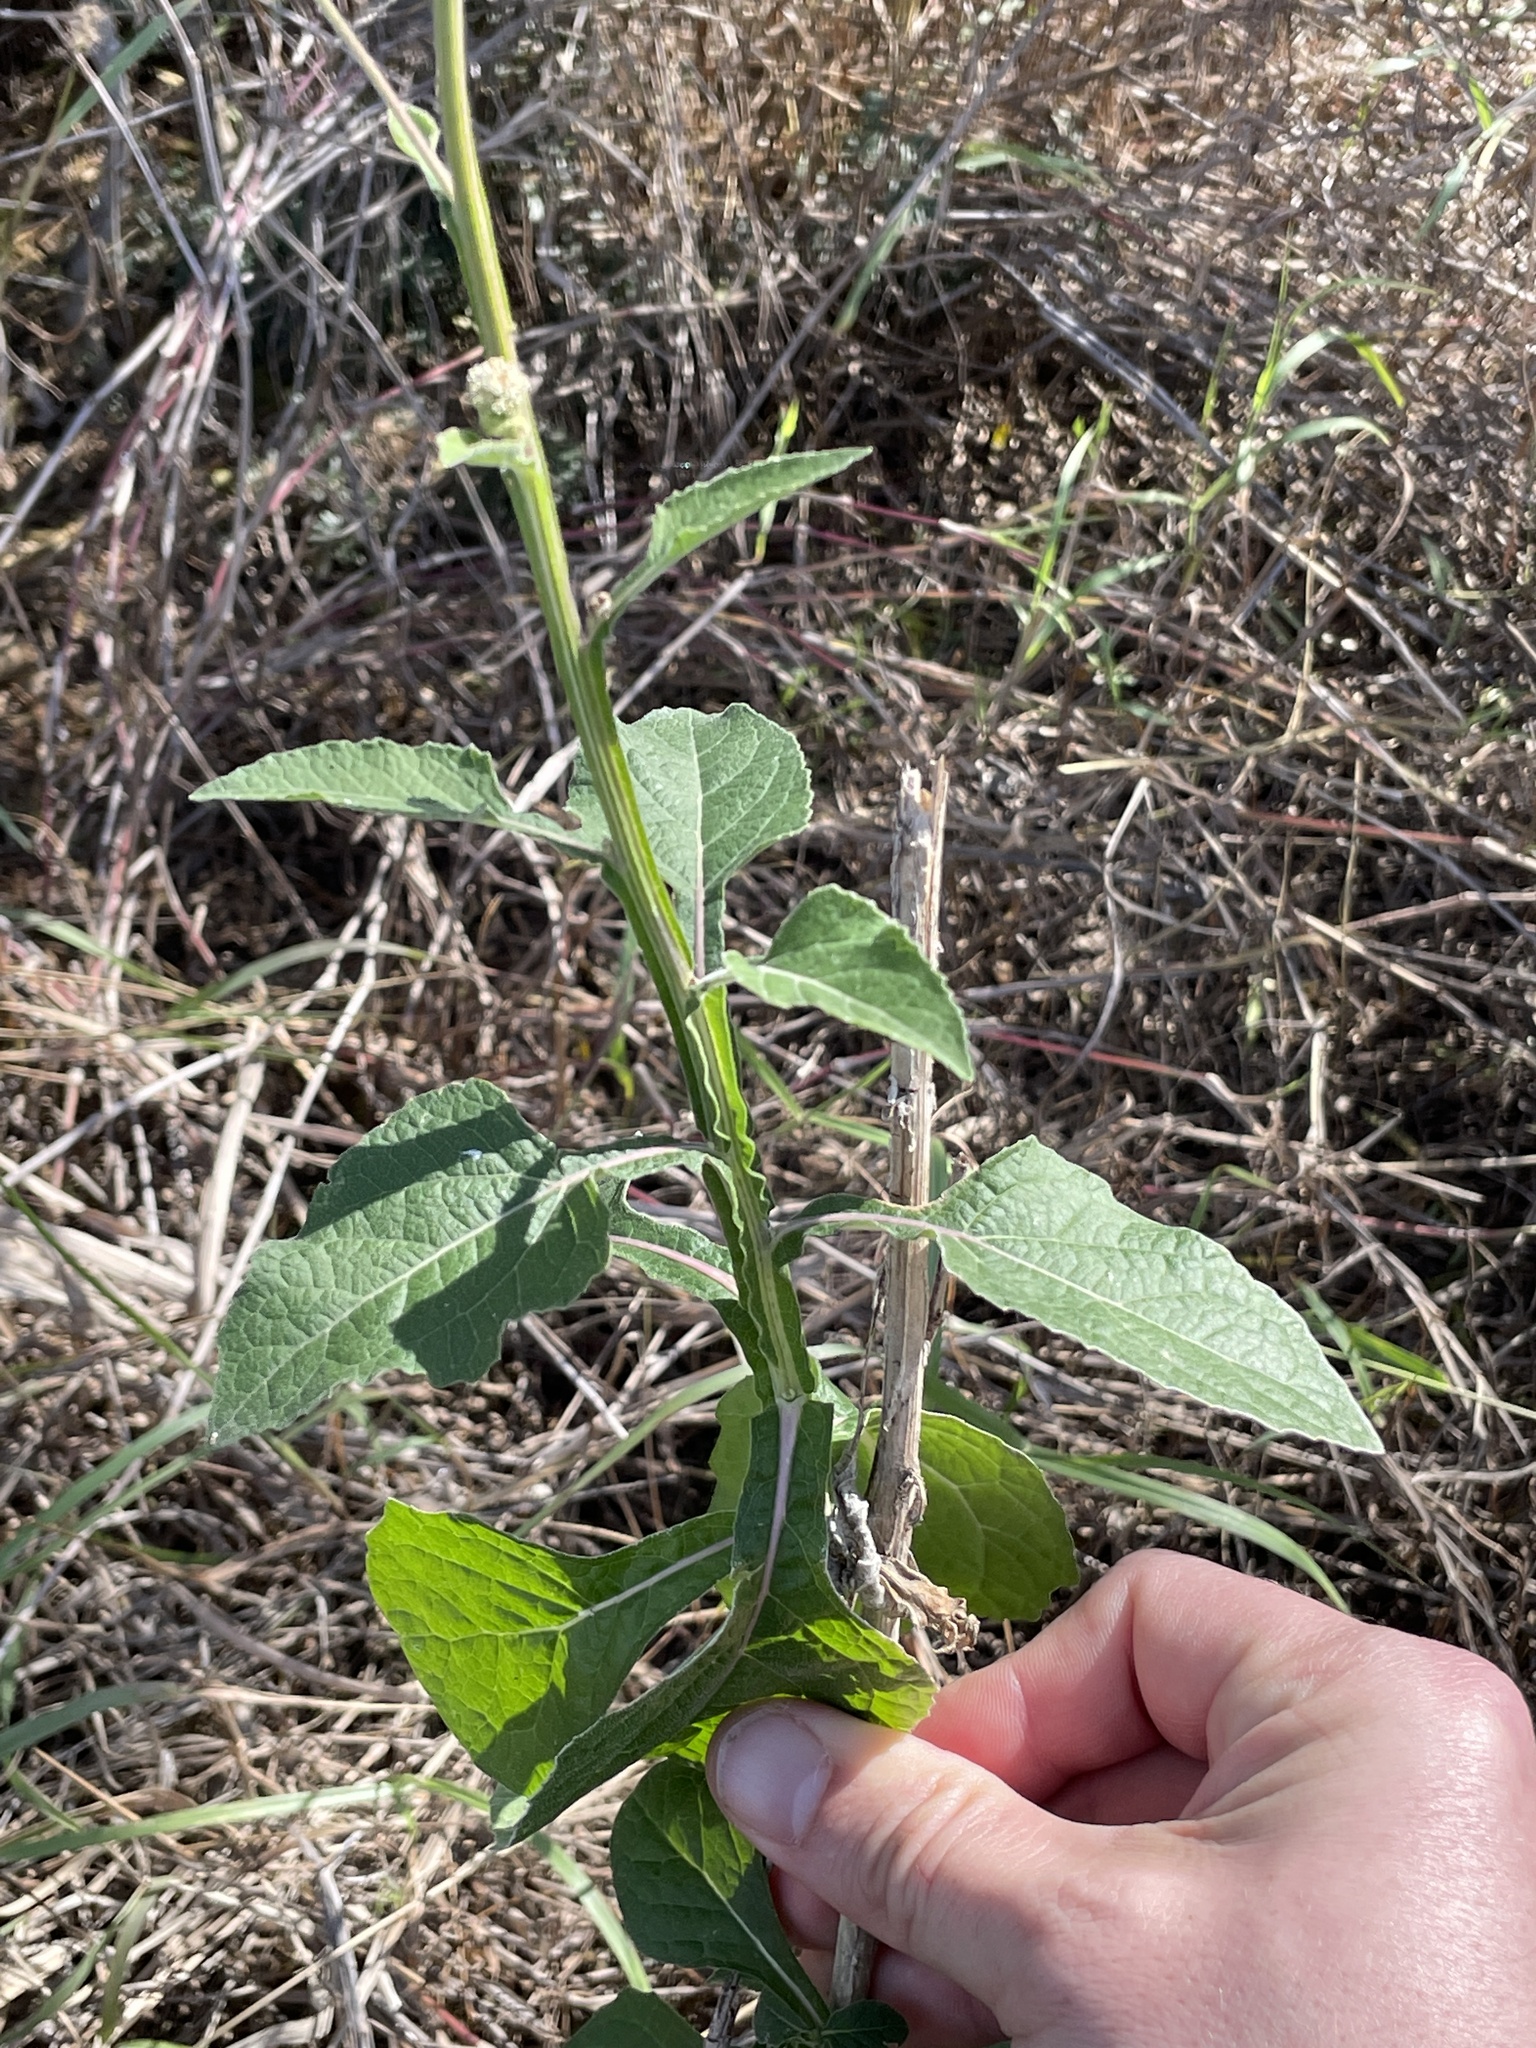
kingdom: Plantae
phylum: Tracheophyta
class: Magnoliopsida
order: Asterales
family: Asteraceae
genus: Verbesina
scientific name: Verbesina microptera
